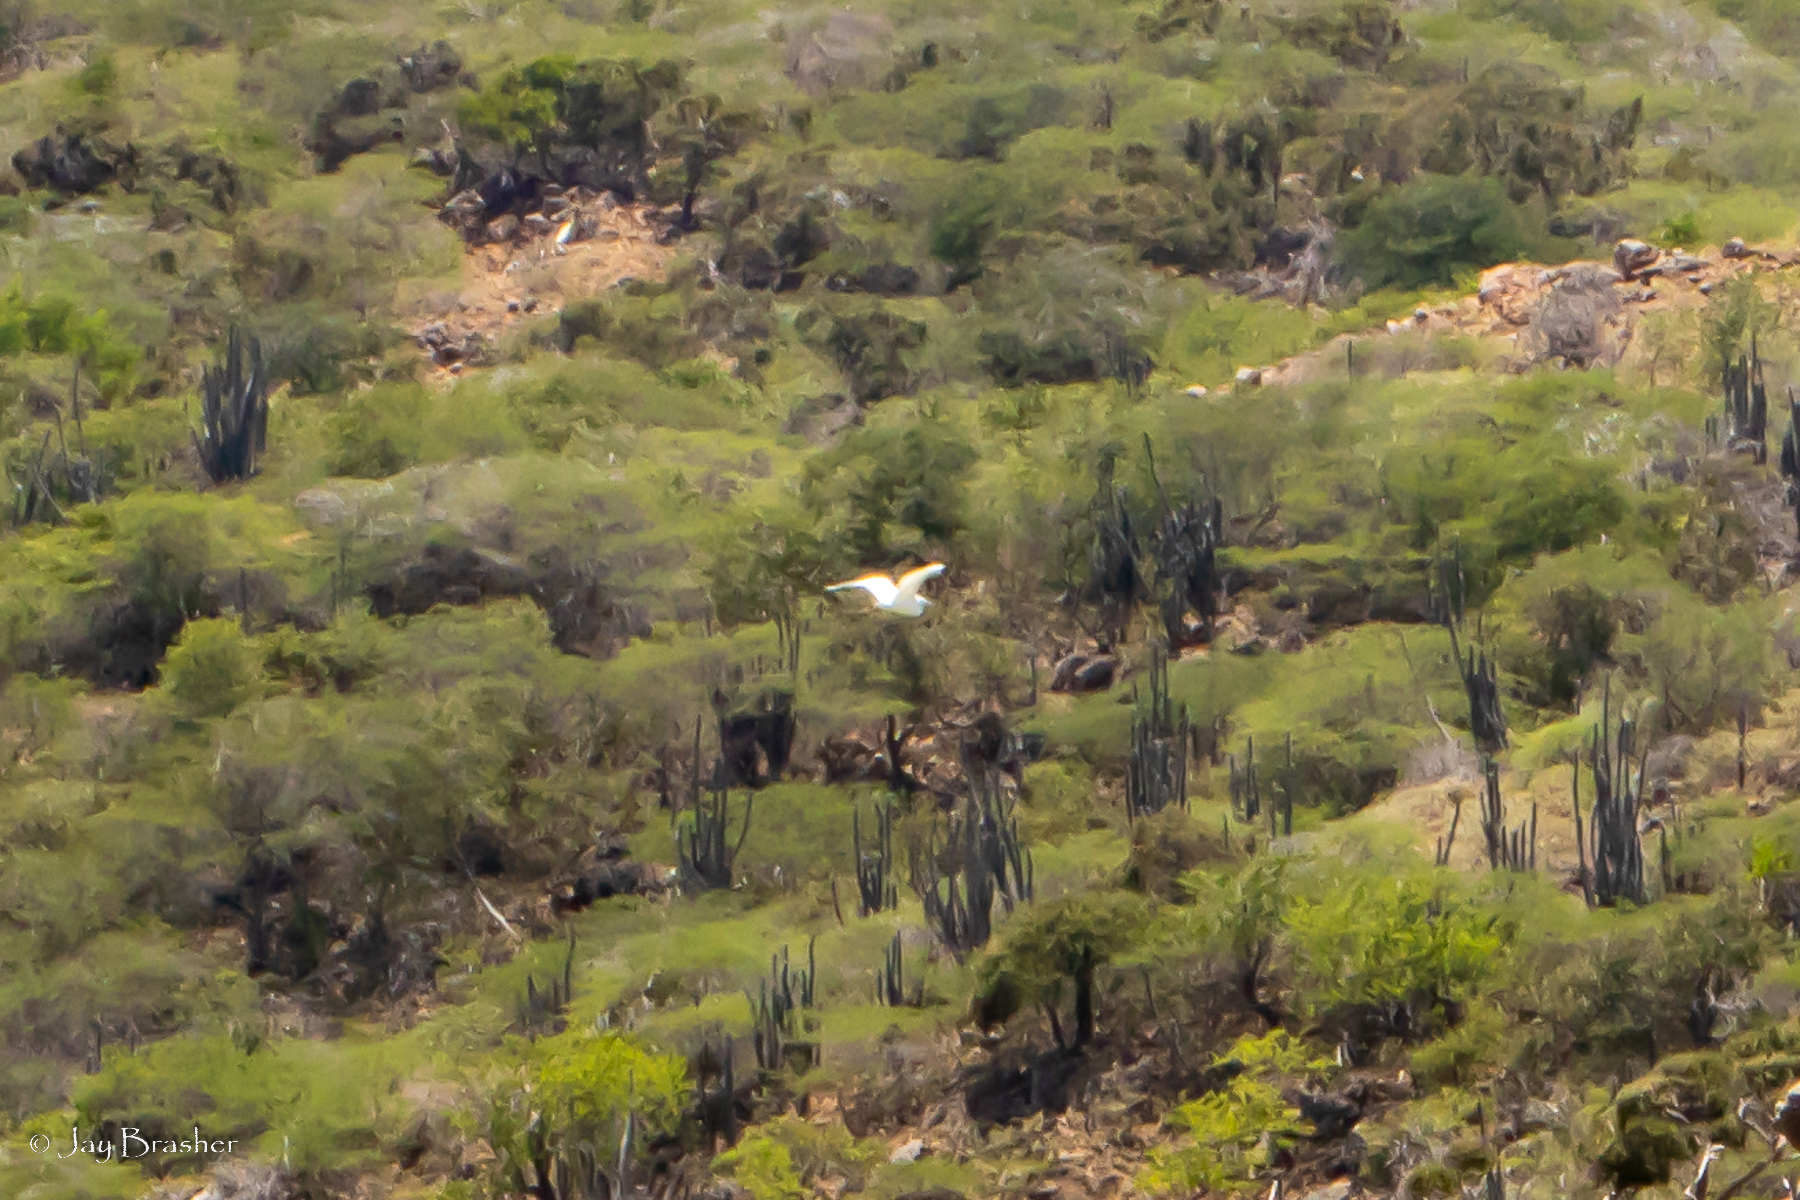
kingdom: Animalia
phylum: Chordata
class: Aves
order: Pelecaniformes
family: Ardeidae
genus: Ardea
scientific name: Ardea alba
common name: Great egret
